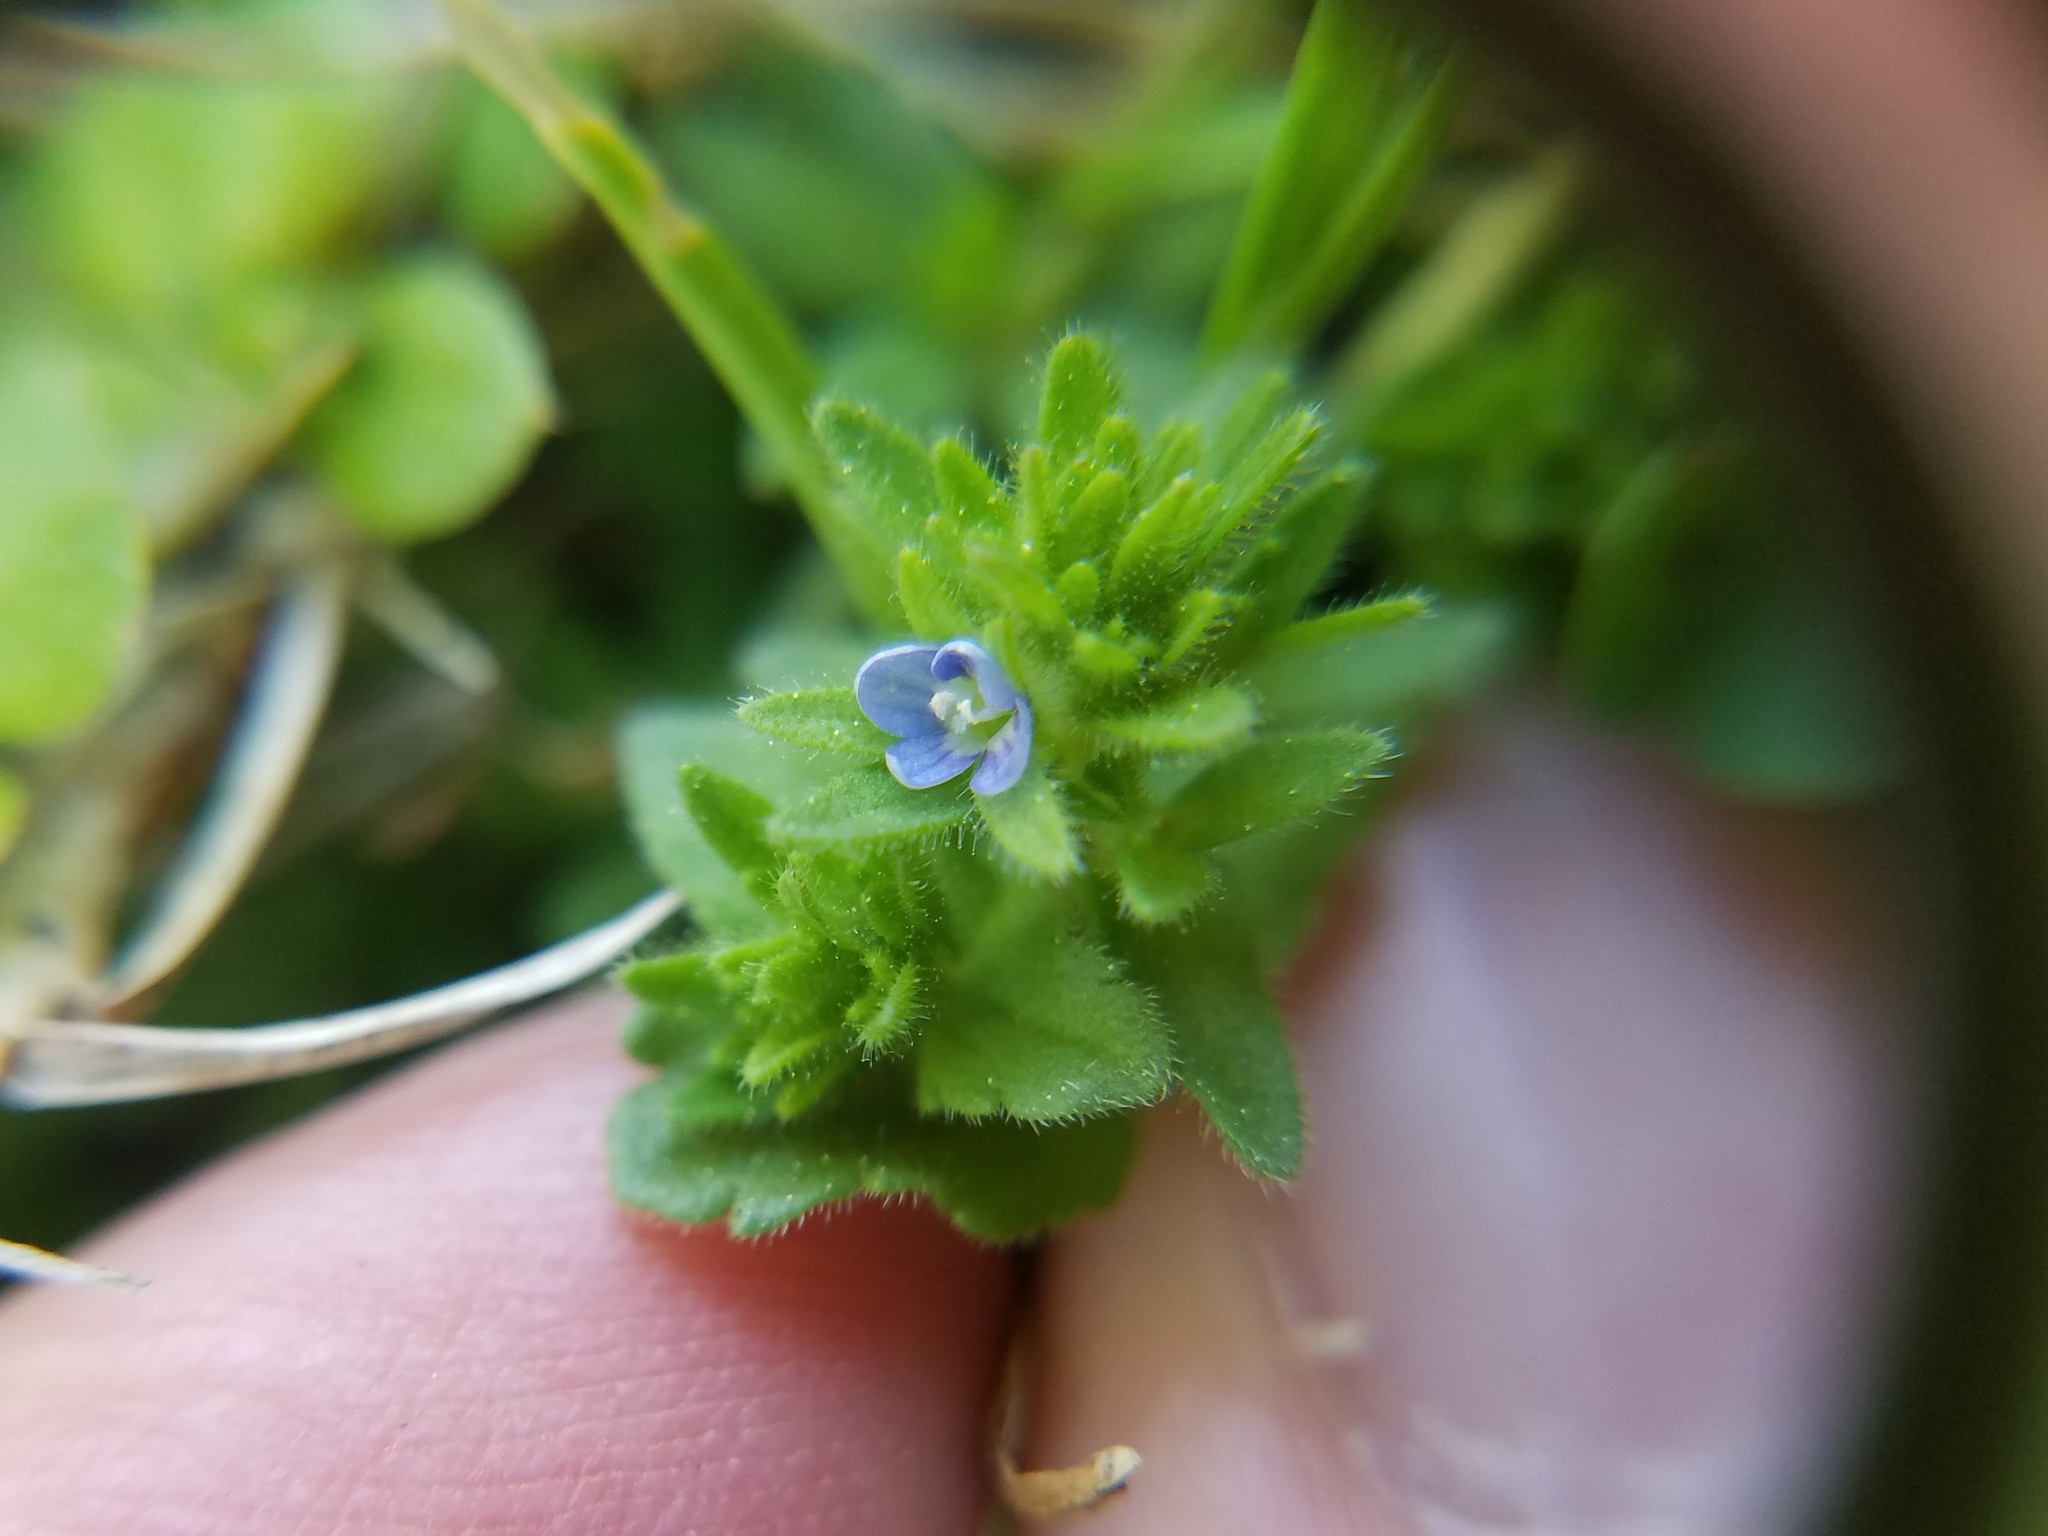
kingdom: Plantae
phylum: Tracheophyta
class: Magnoliopsida
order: Lamiales
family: Plantaginaceae
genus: Veronica
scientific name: Veronica arvensis
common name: Corn speedwell
